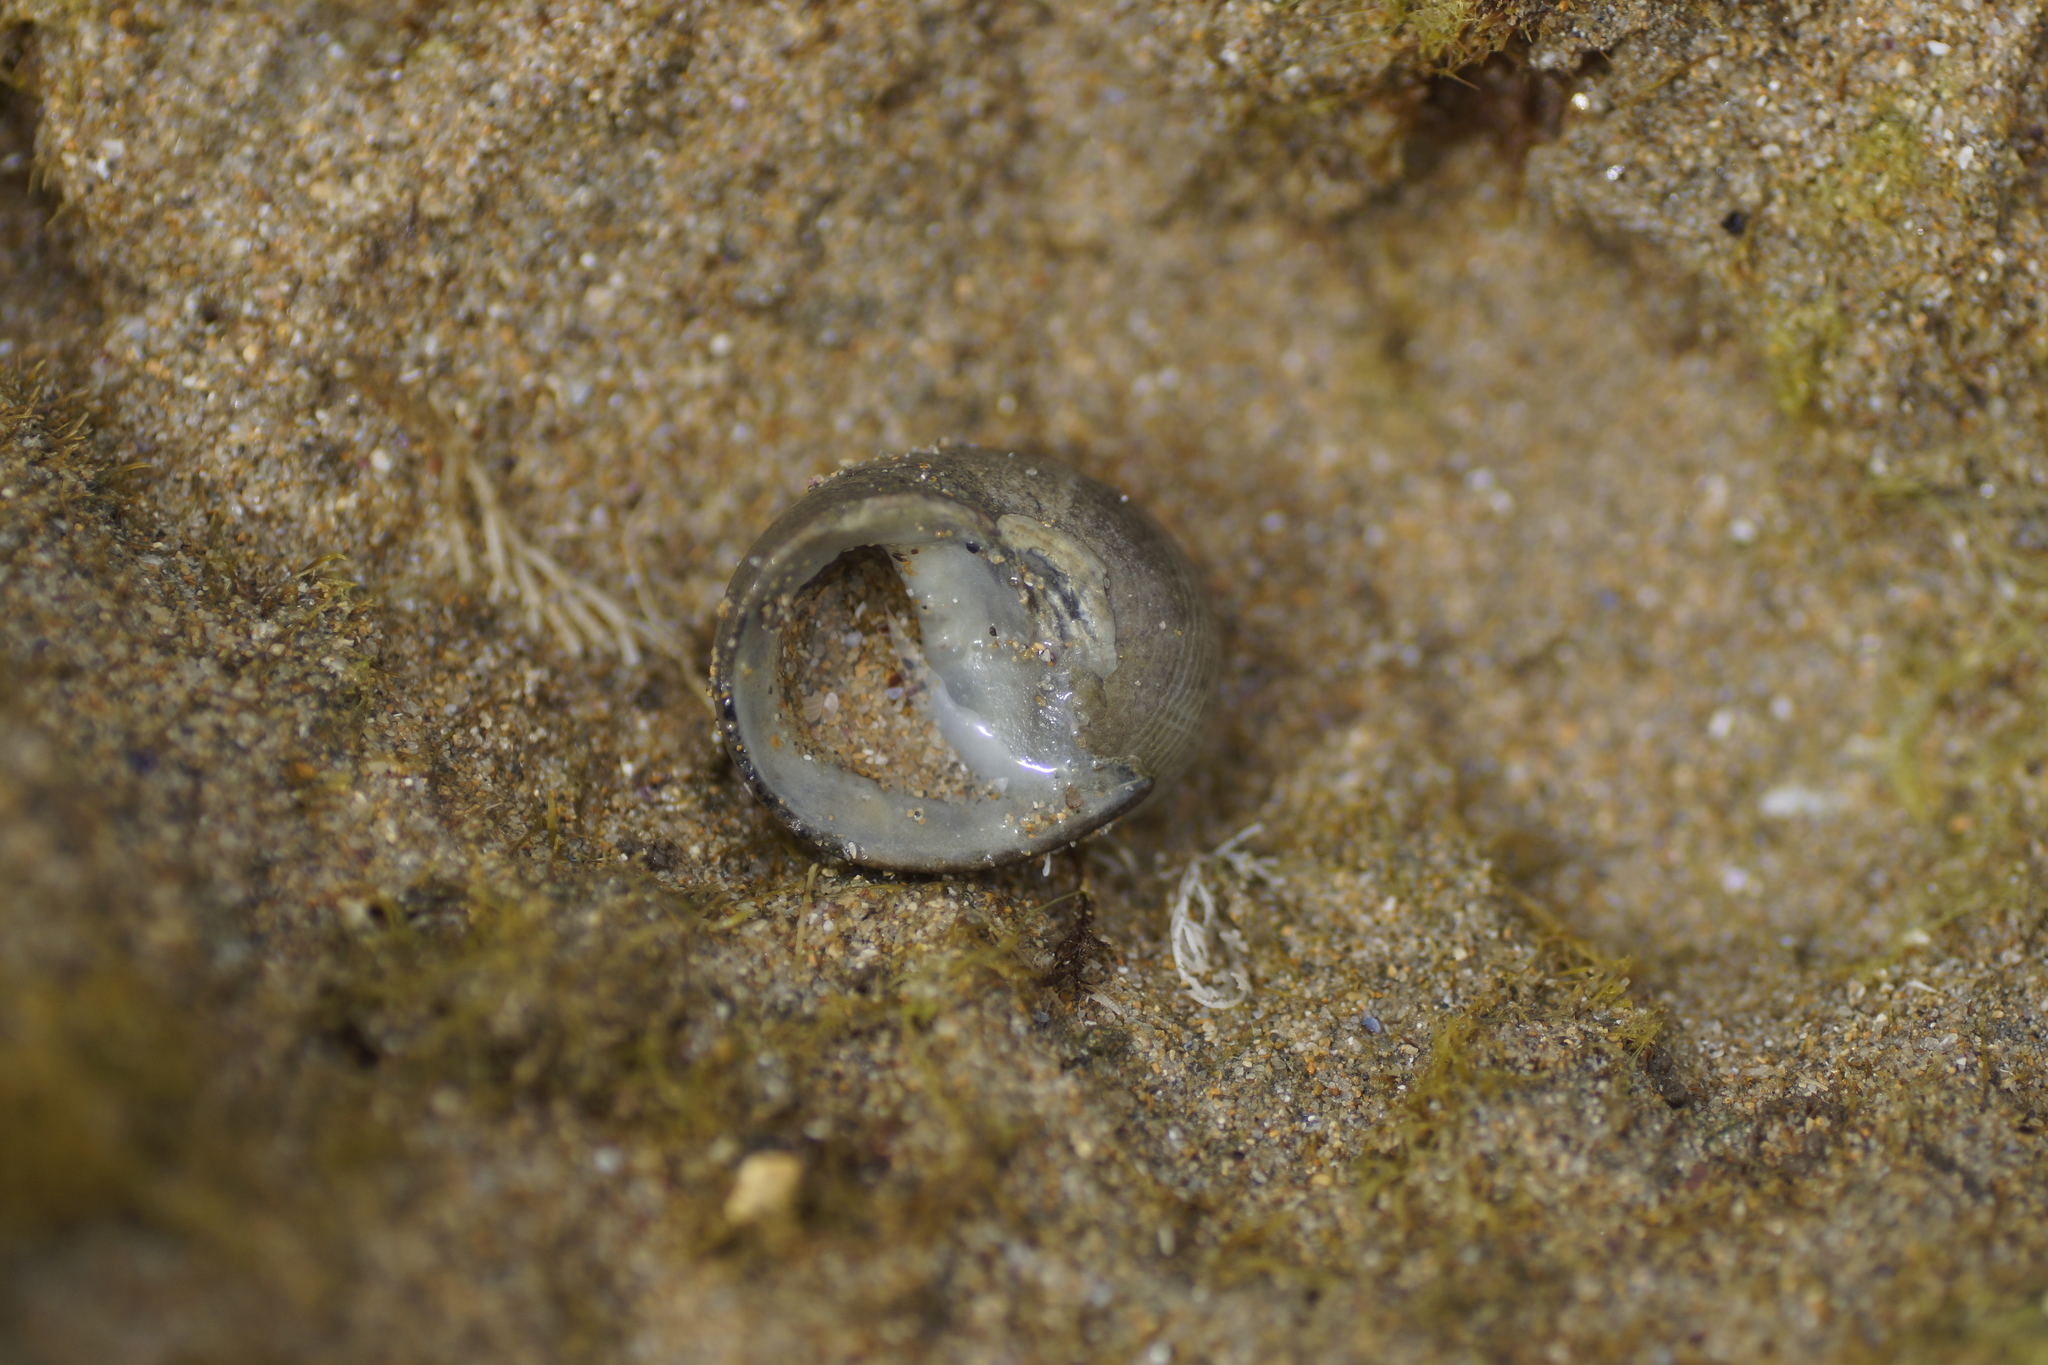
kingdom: Animalia
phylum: Mollusca
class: Gastropoda
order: Cycloneritida
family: Neritidae
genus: Nerita
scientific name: Nerita atramentosa
